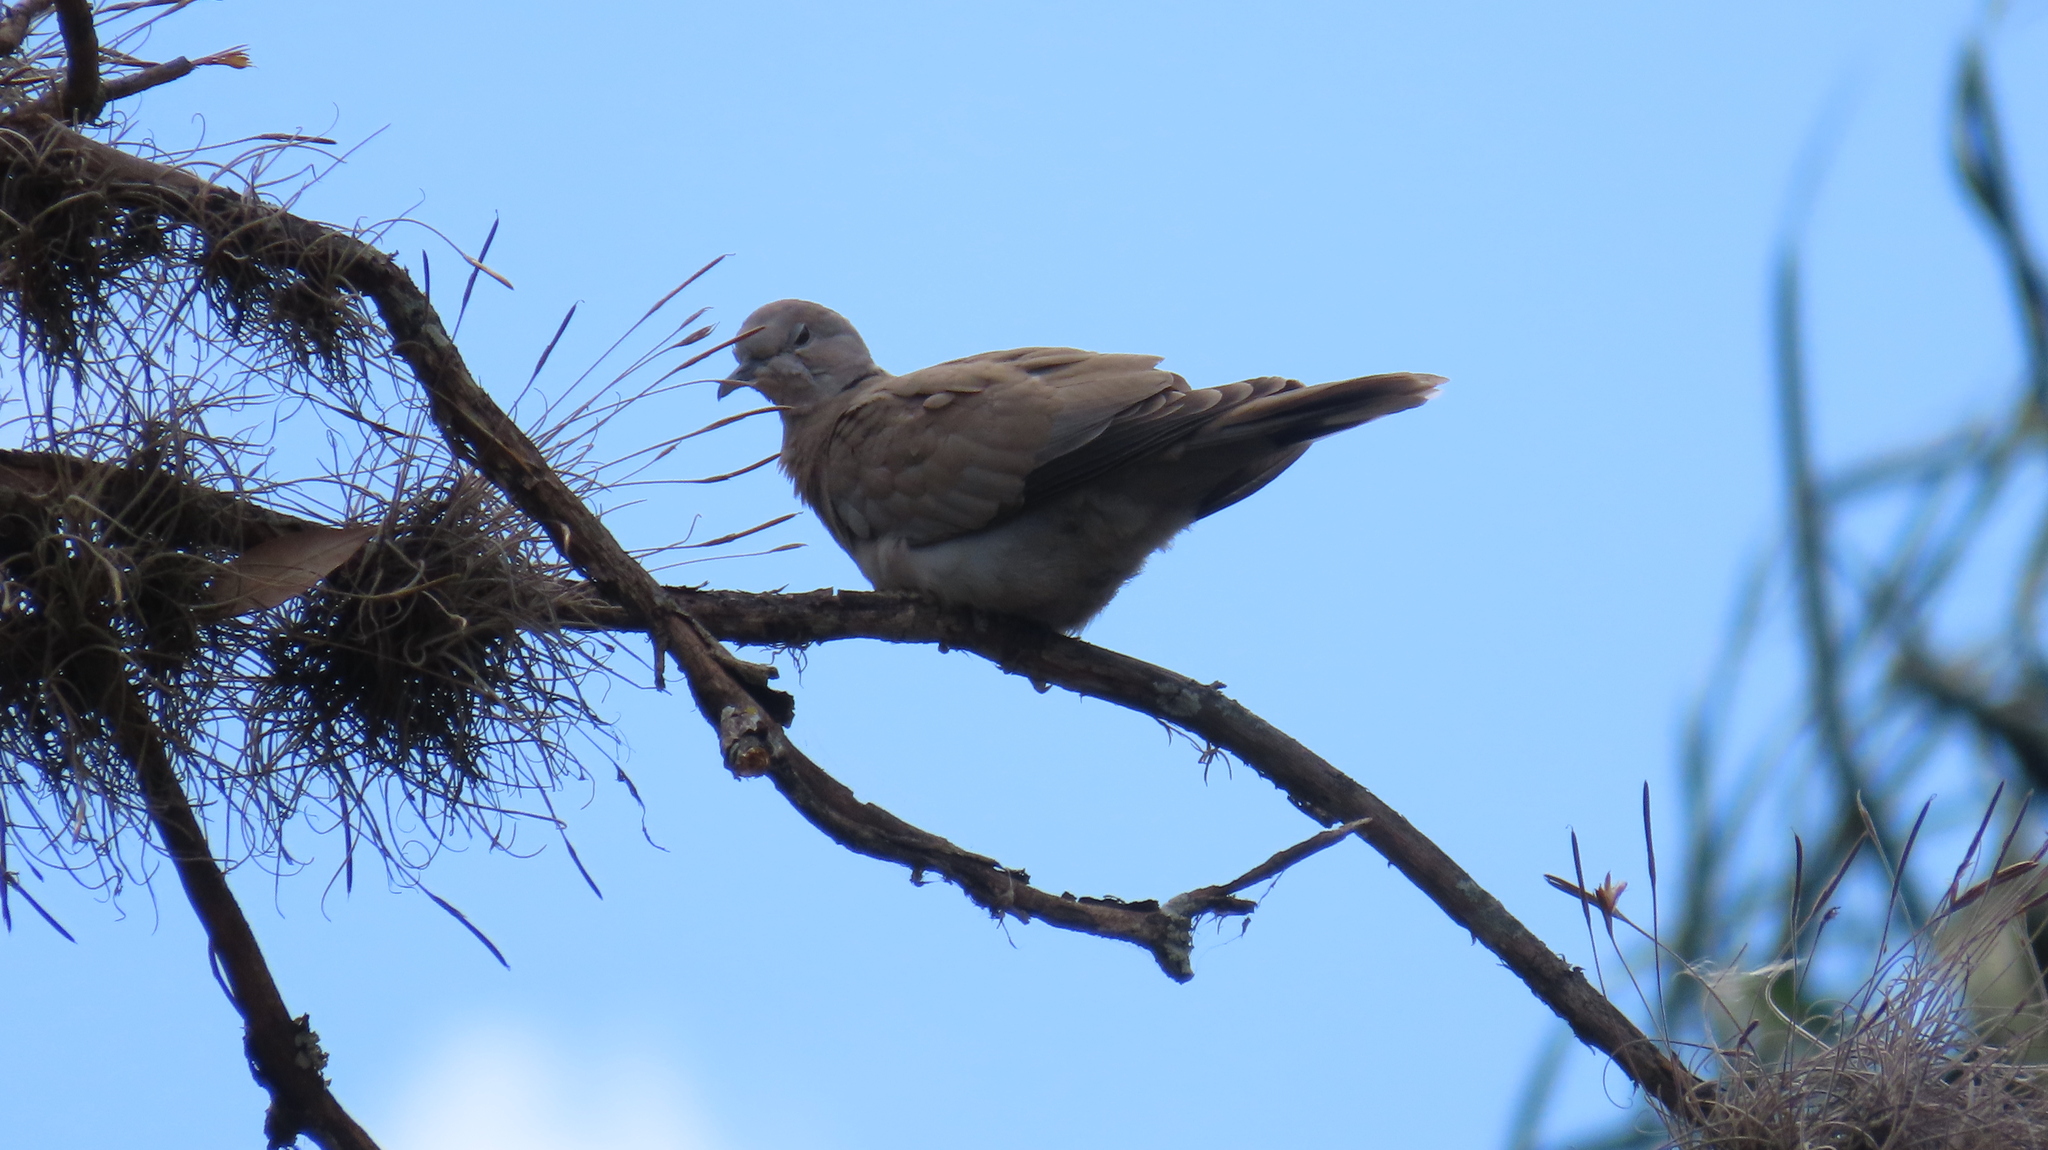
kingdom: Animalia
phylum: Chordata
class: Aves
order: Columbiformes
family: Columbidae
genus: Streptopelia
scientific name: Streptopelia decaocto
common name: Eurasian collared dove
